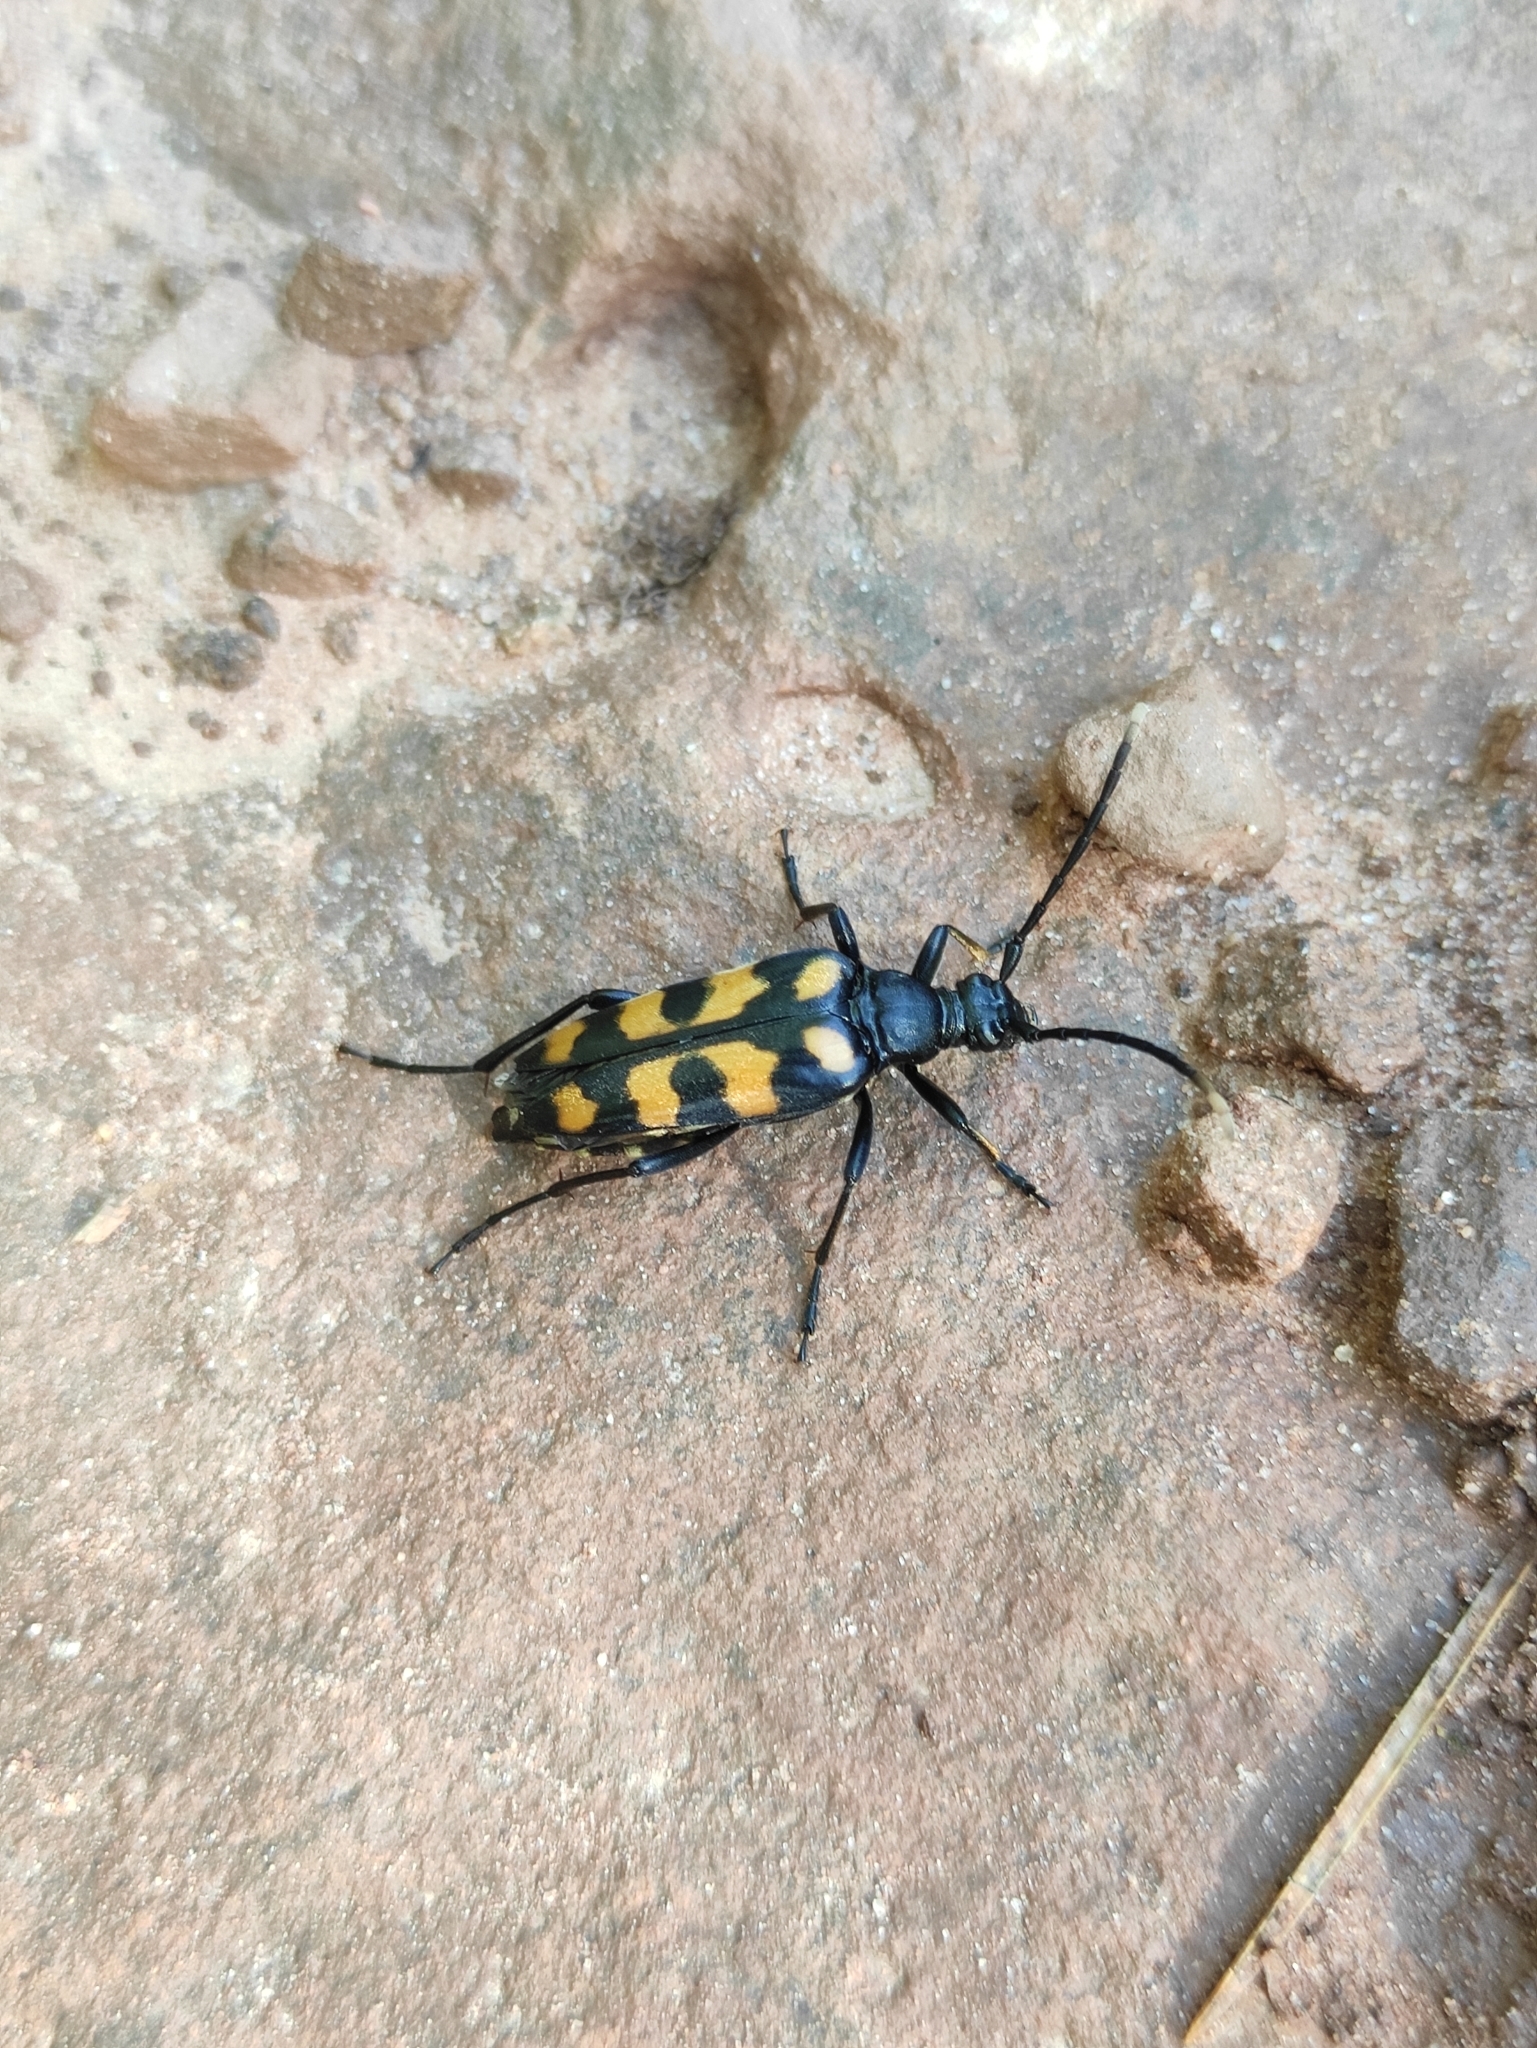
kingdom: Animalia
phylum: Arthropoda
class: Insecta
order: Coleoptera
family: Cerambycidae
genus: Leptura
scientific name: Leptura quadrifasciata
